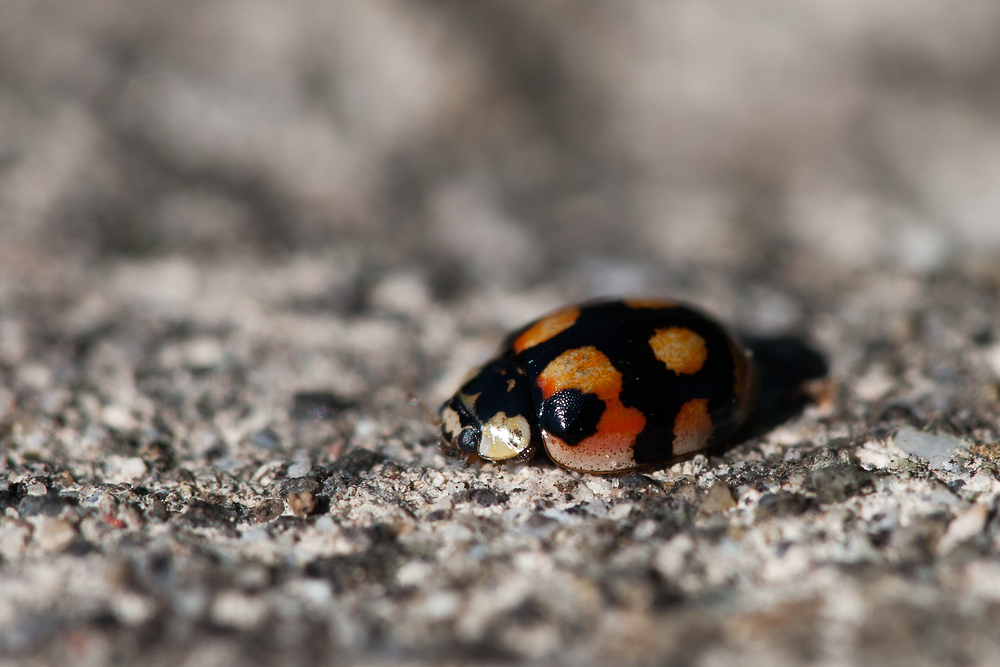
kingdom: Animalia
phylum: Arthropoda
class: Insecta
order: Coleoptera
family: Coccinellidae
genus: Adalia
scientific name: Adalia decempunctata
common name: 10-spot ladybird
